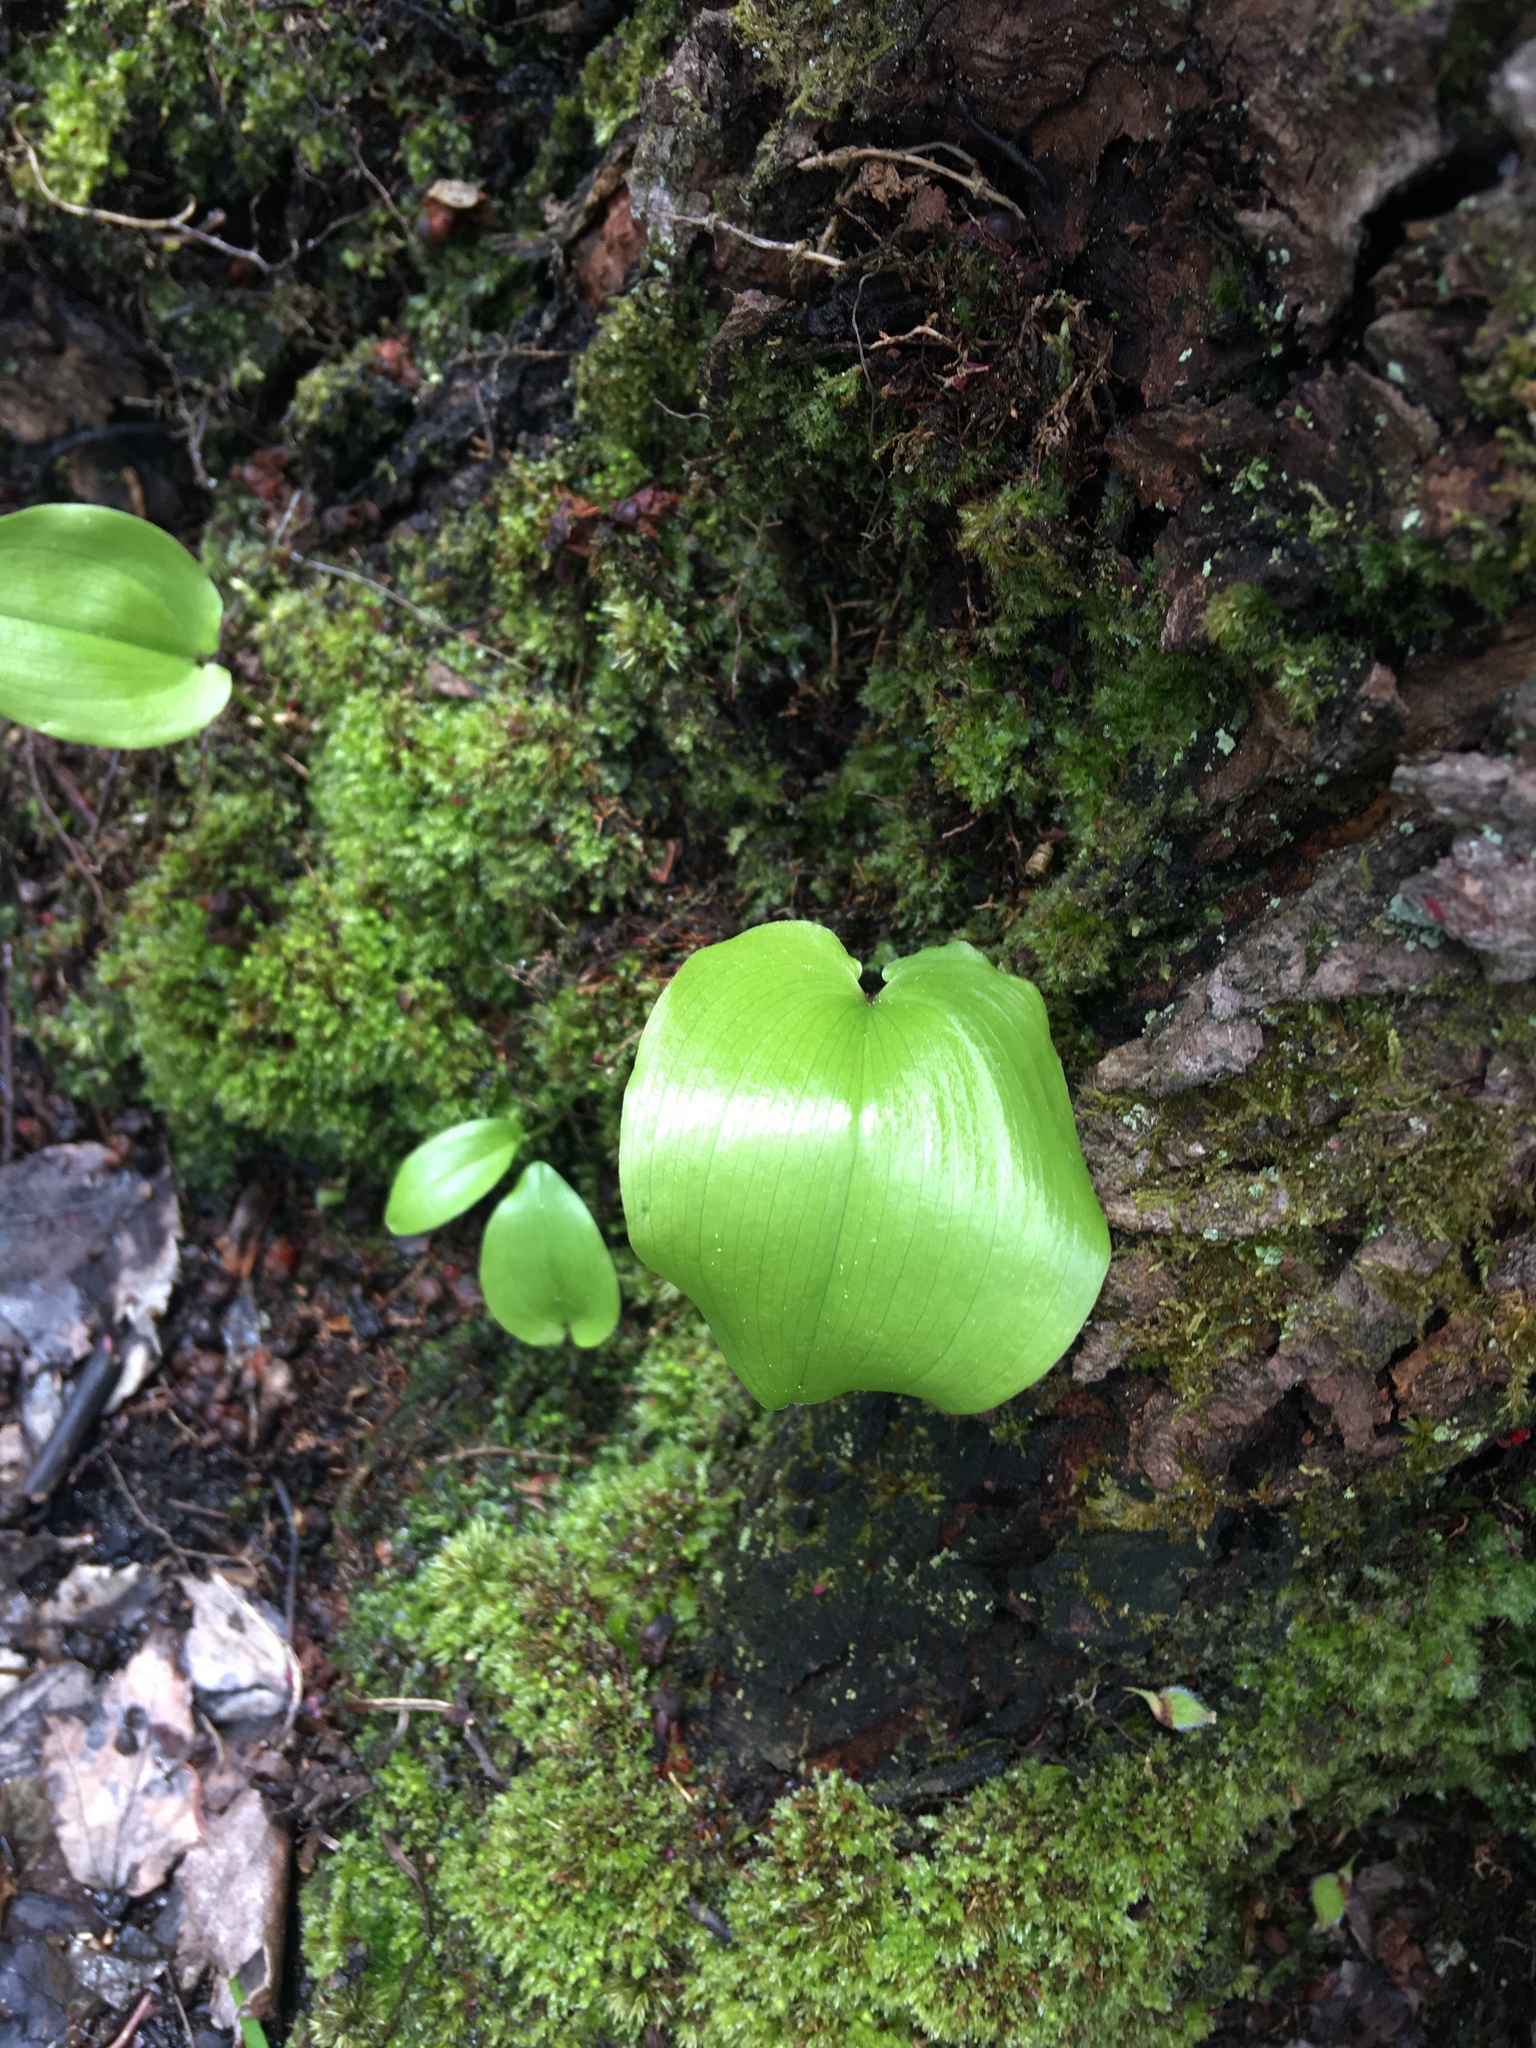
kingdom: Plantae
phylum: Tracheophyta
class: Liliopsida
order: Asparagales
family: Asparagaceae
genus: Maianthemum
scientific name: Maianthemum canadense
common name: False lily-of-the-valley
